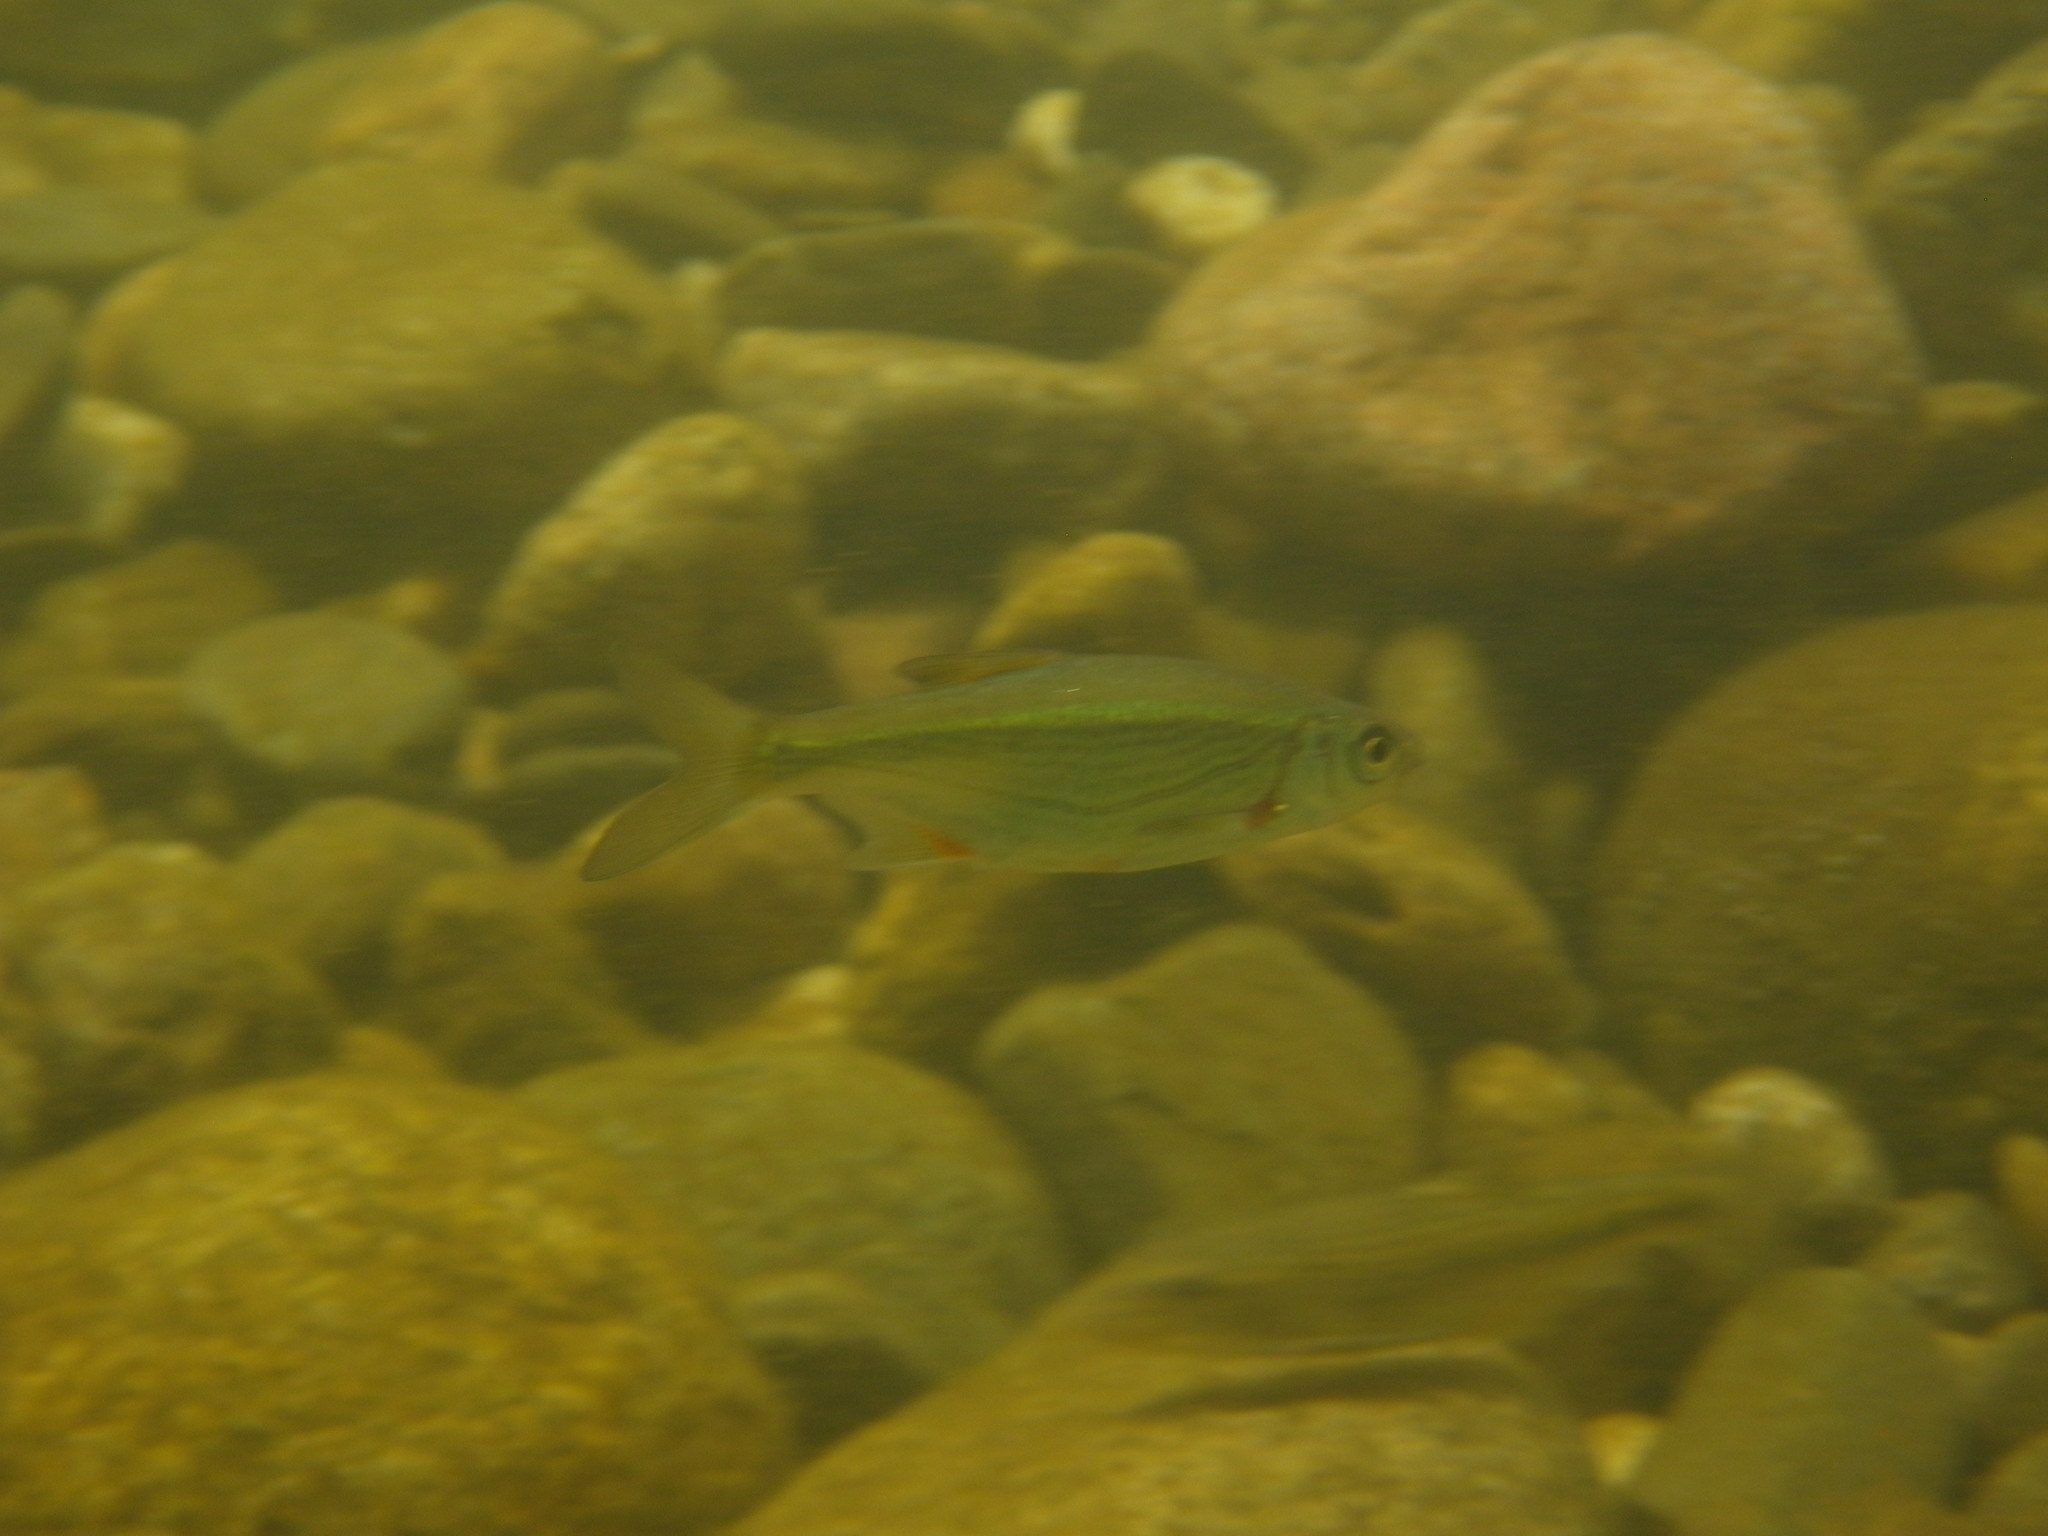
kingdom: Animalia
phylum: Chordata
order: Cypriniformes
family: Cyprinidae
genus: Alburnoides
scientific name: Alburnoides bipunctatus
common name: Spirlin
